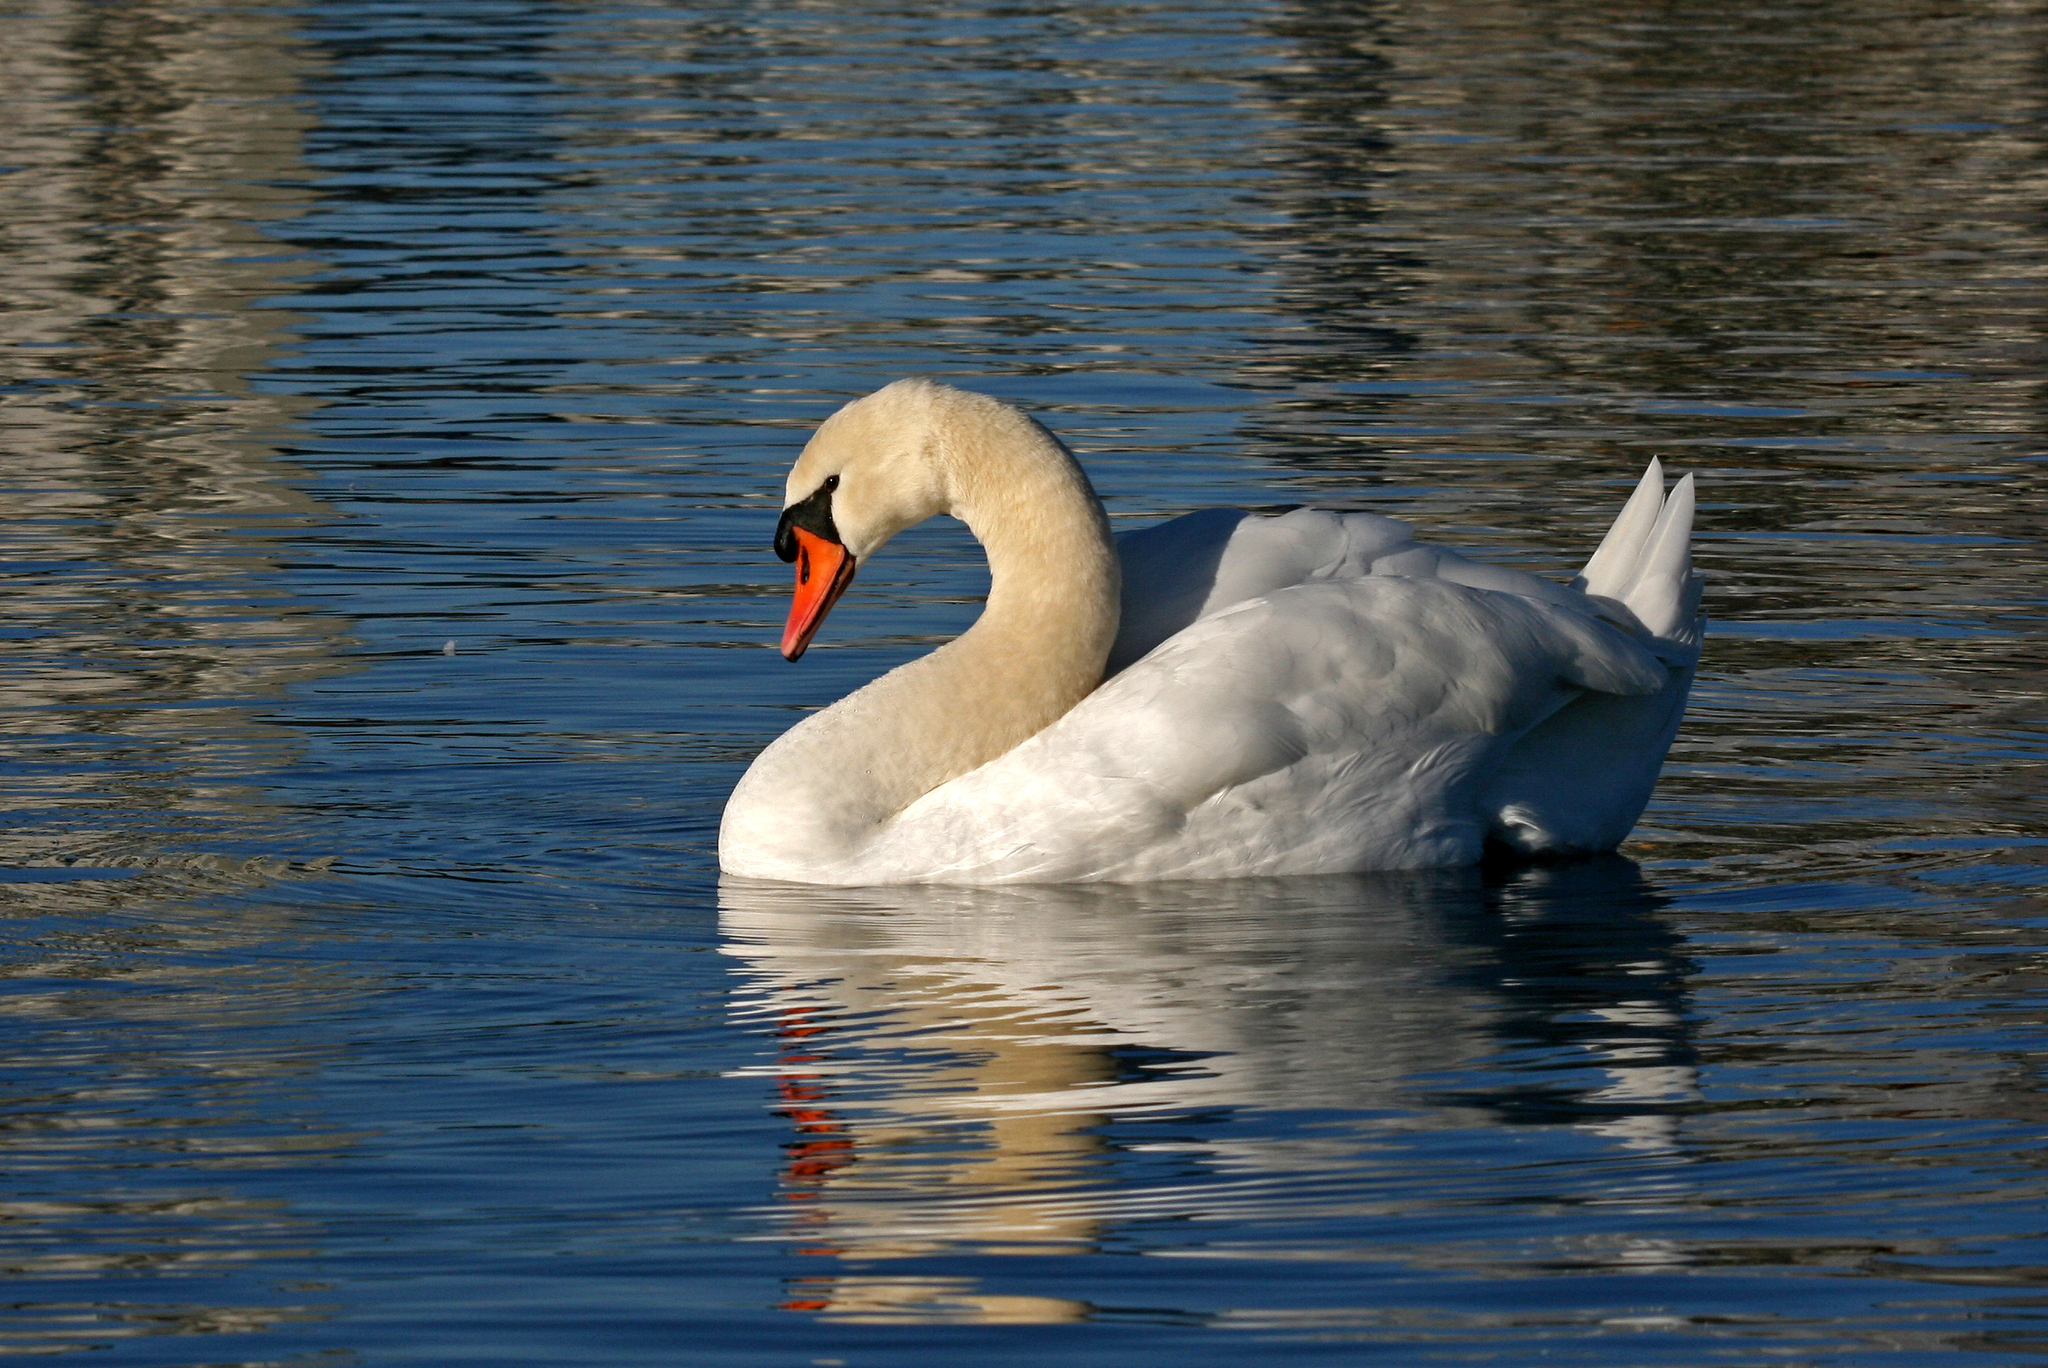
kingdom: Animalia
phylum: Chordata
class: Aves
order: Anseriformes
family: Anatidae
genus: Cygnus
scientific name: Cygnus olor
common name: Mute swan
